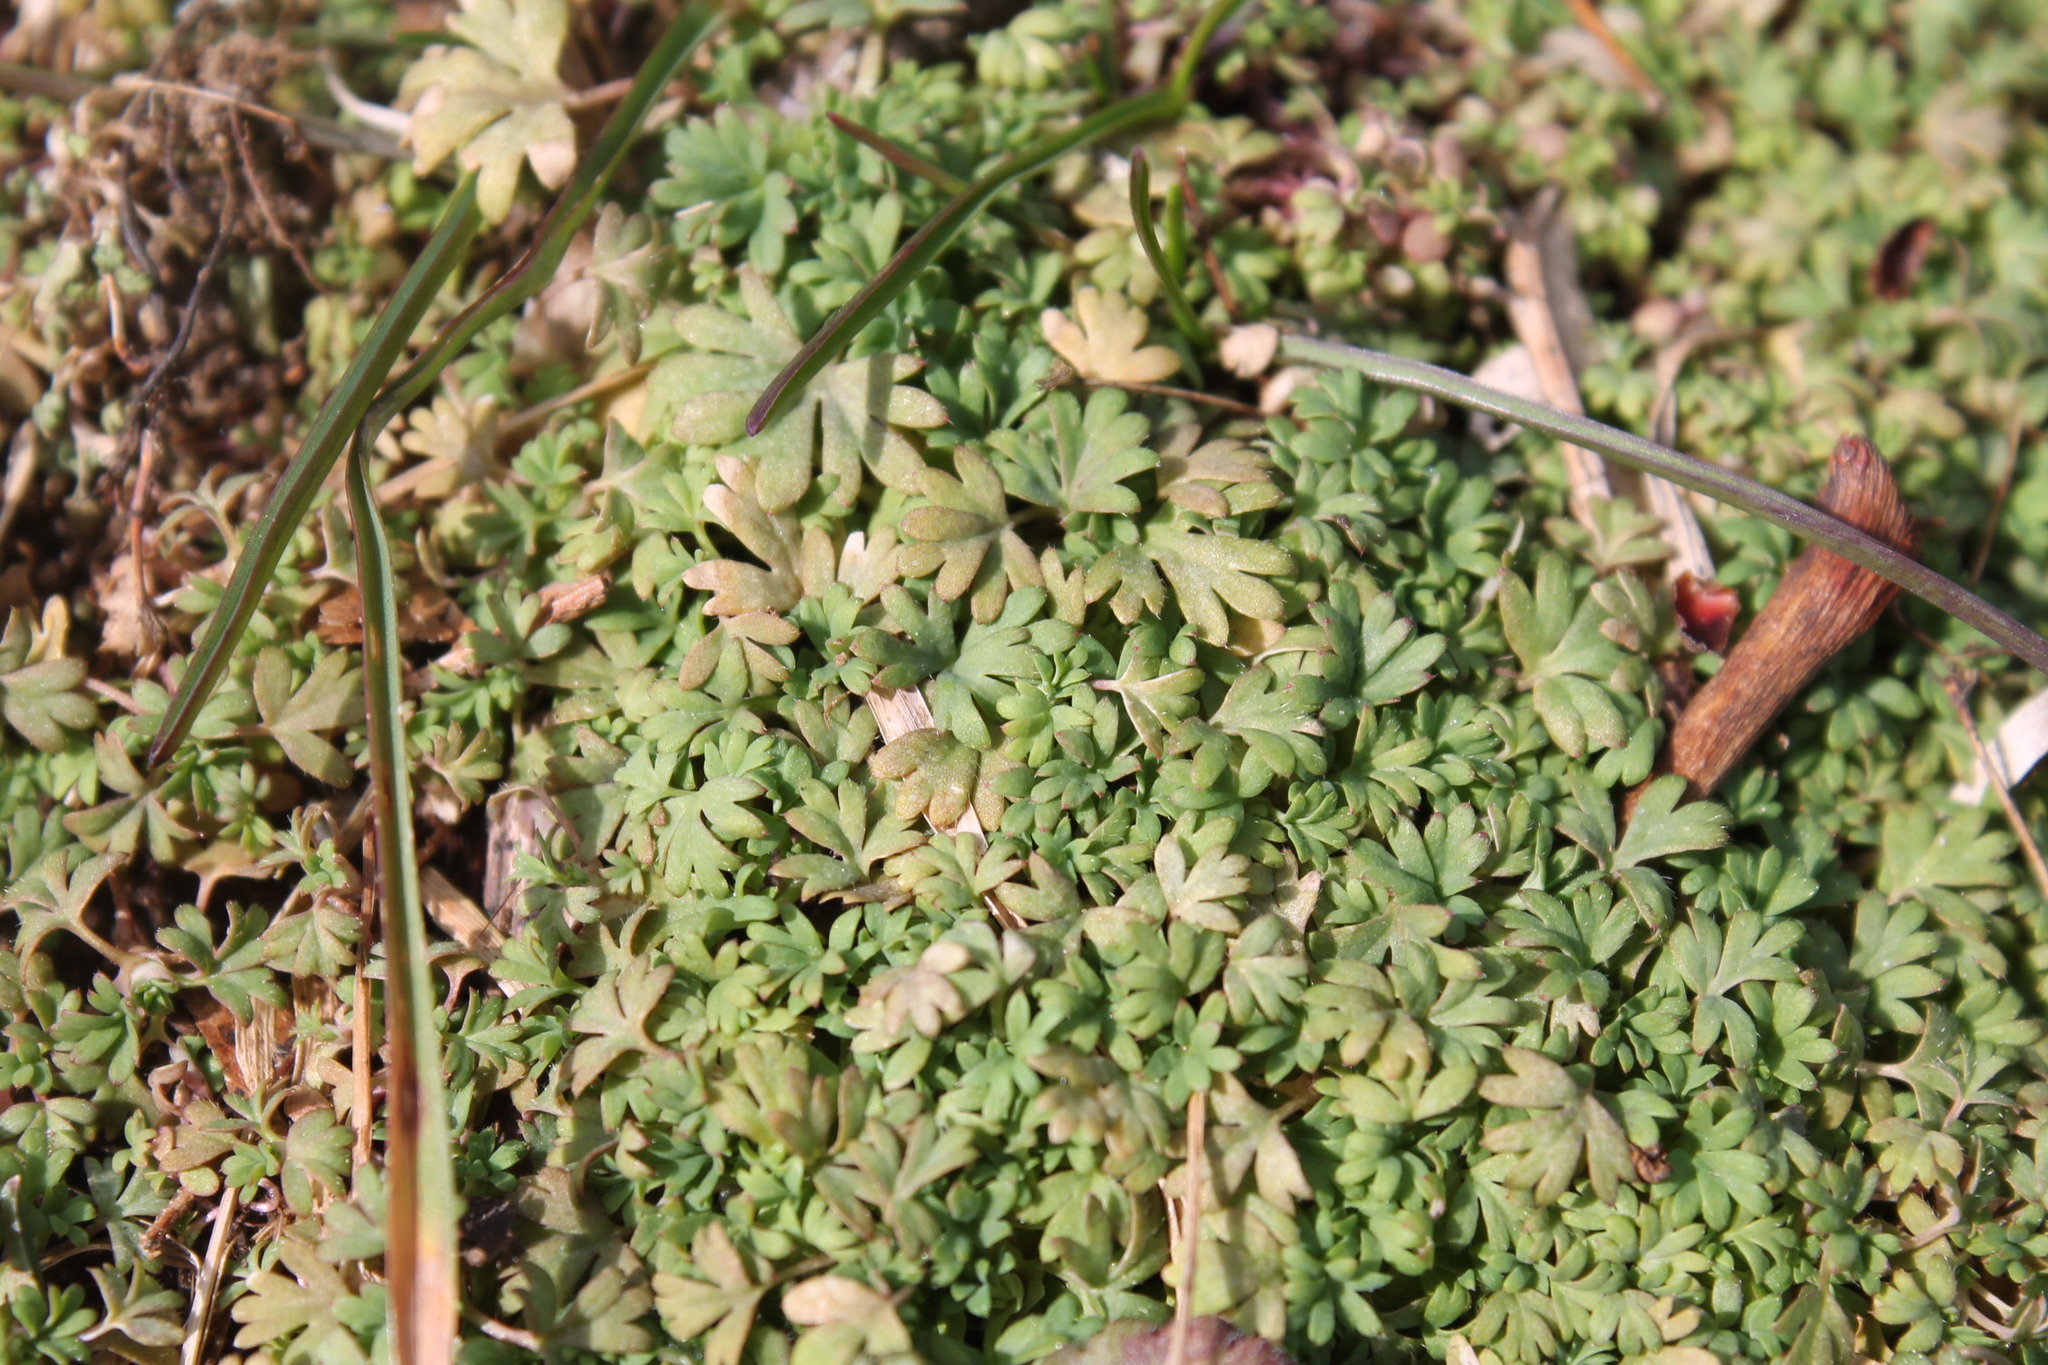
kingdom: Plantae
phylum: Tracheophyta
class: Magnoliopsida
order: Rosales
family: Rosaceae
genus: Aphanes
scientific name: Aphanes australis
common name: Slender parsley-piert
